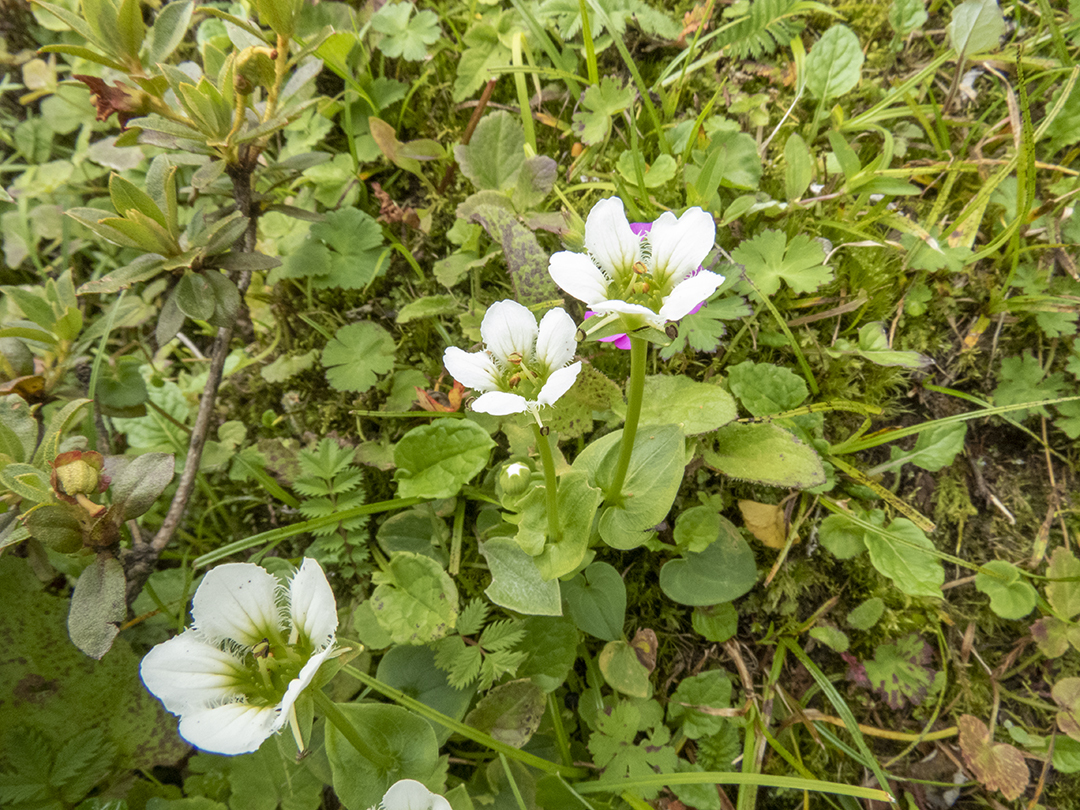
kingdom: Plantae
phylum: Tracheophyta
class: Magnoliopsida
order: Celastrales
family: Parnassiaceae
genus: Parnassia
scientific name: Parnassia chinensis
